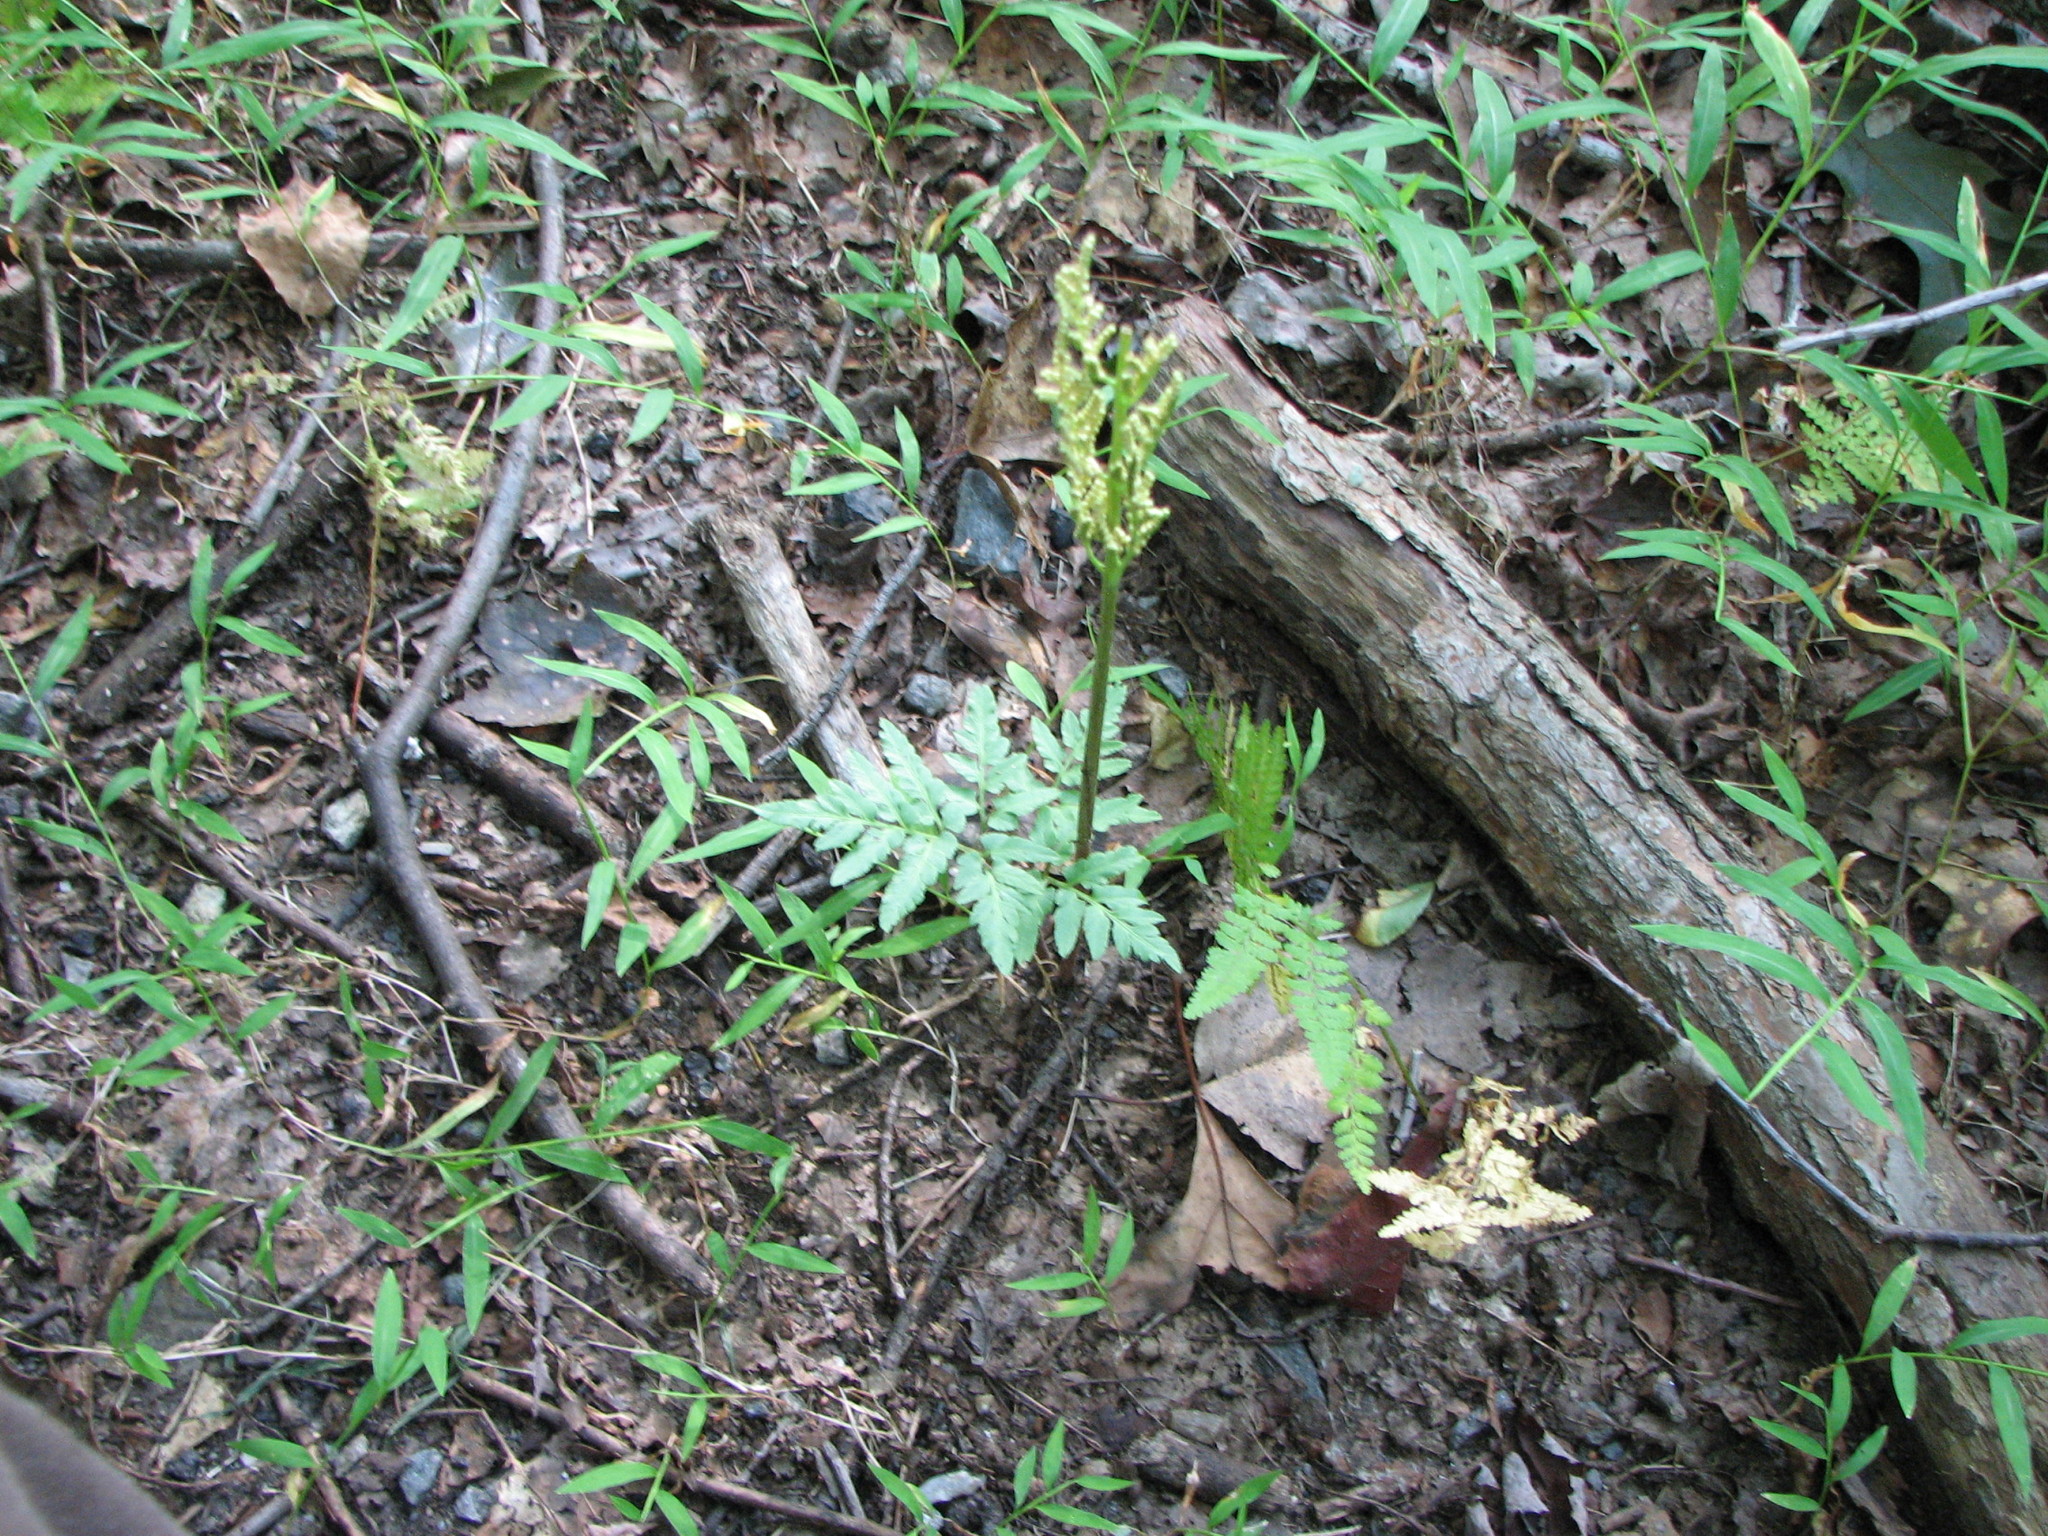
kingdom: Plantae
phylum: Tracheophyta
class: Polypodiopsida
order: Ophioglossales
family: Ophioglossaceae
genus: Sceptridium
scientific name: Sceptridium dissectum
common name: Cut-leaved grapefern
